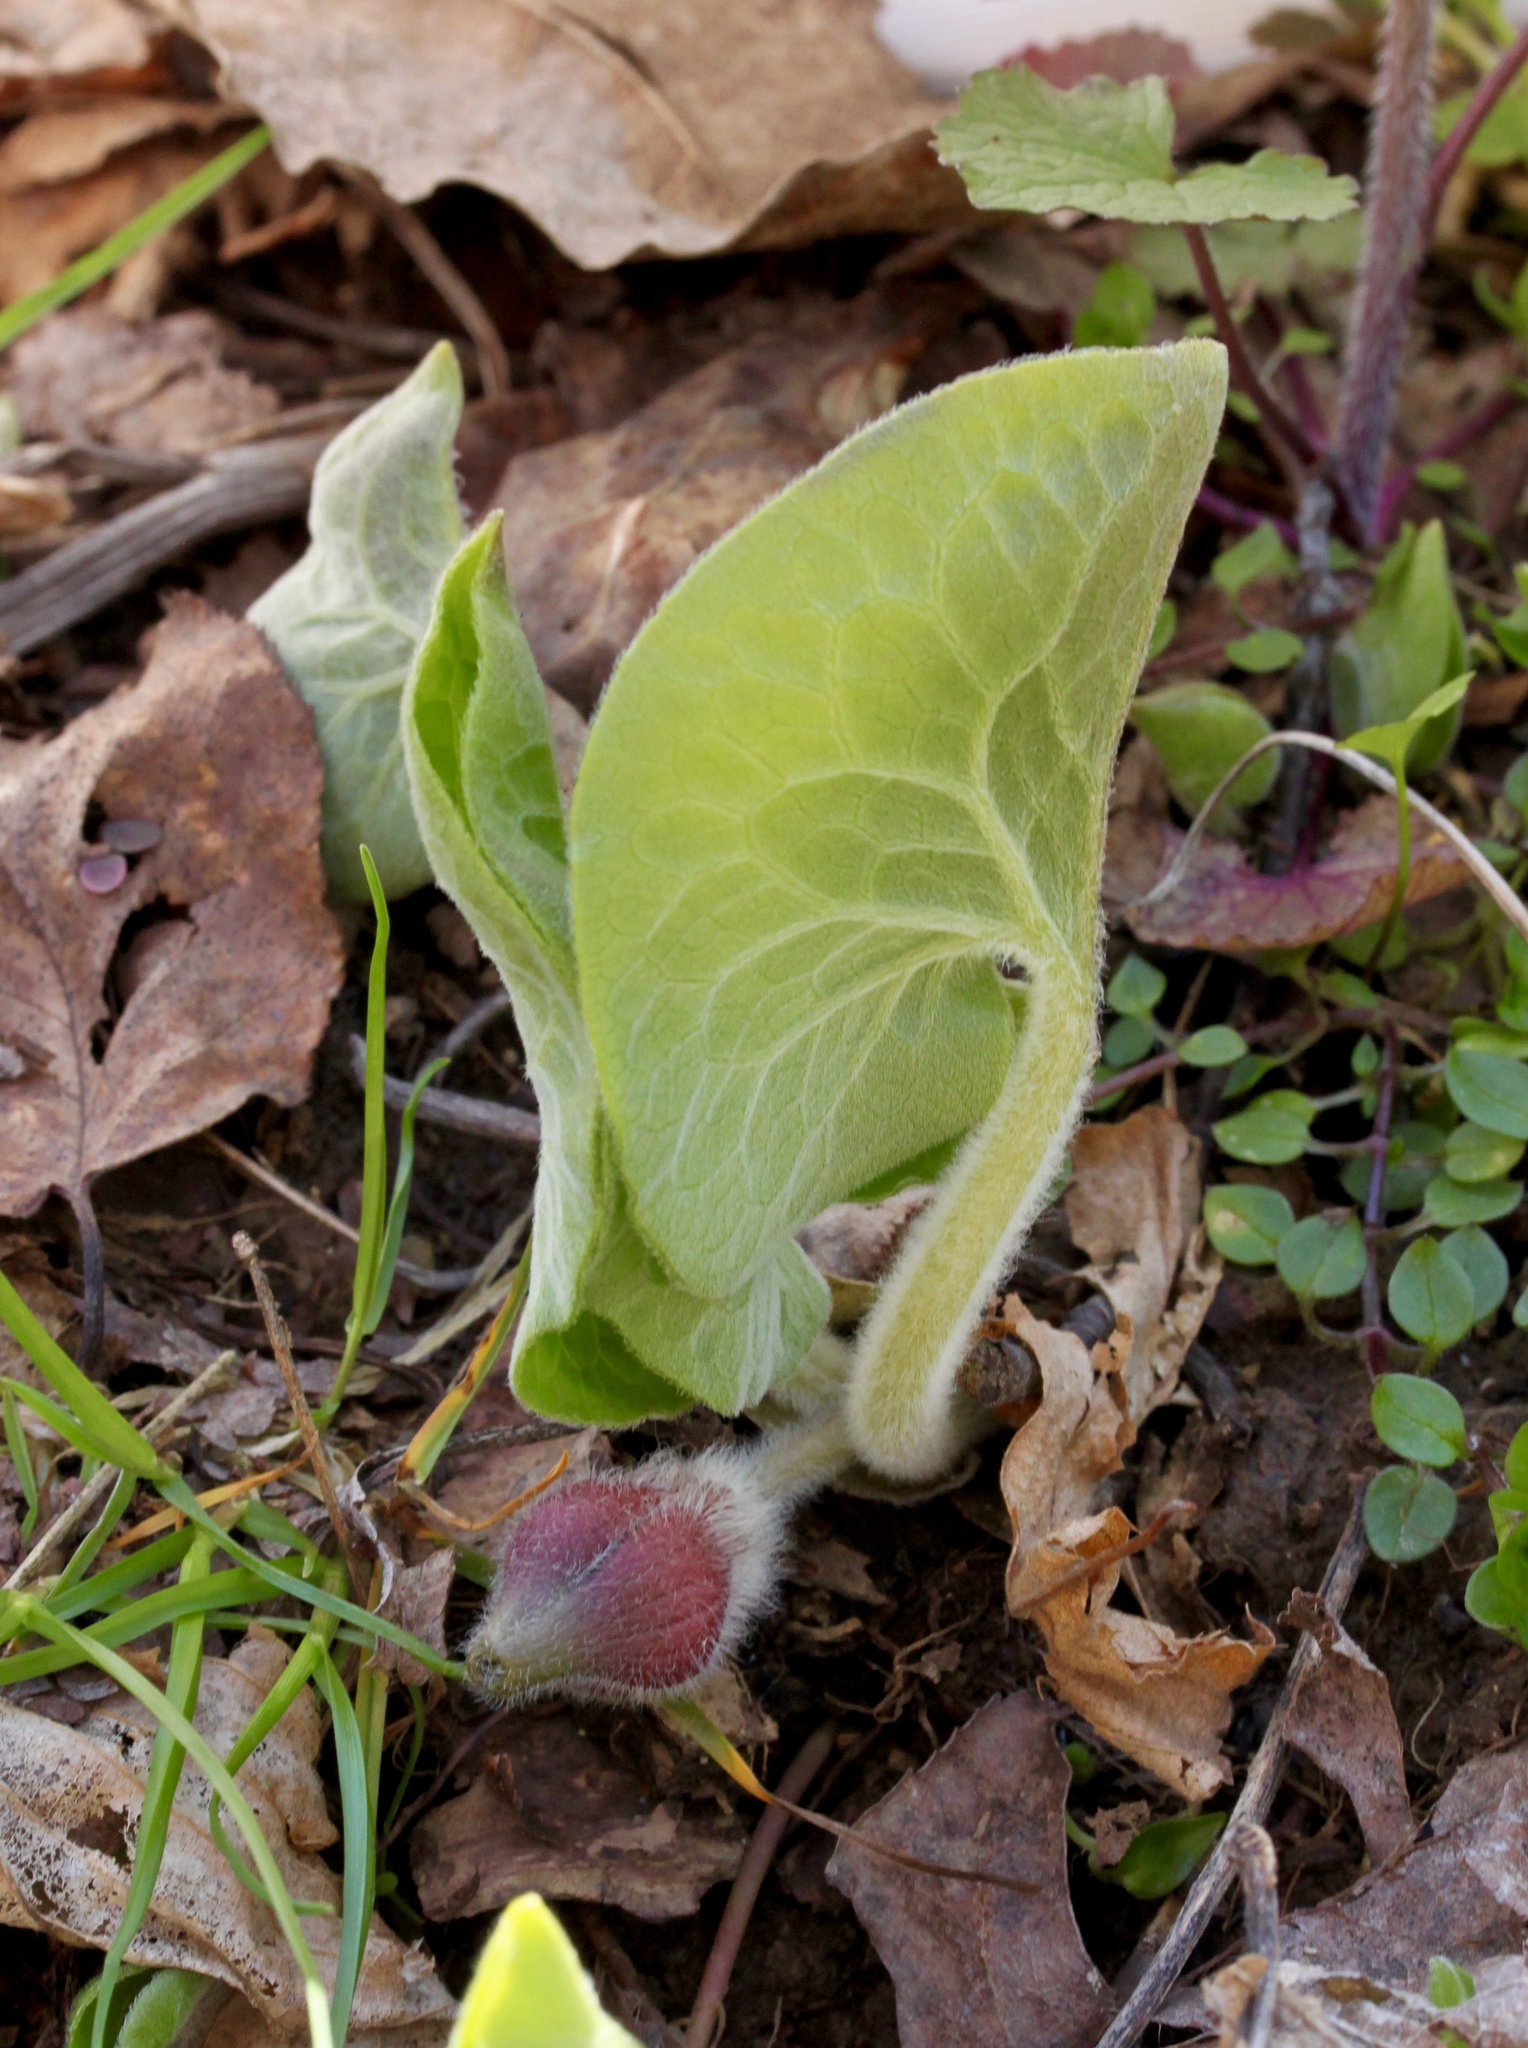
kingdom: Plantae
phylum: Tracheophyta
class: Magnoliopsida
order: Piperales
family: Aristolochiaceae
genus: Asarum
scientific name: Asarum canadense
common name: Wild ginger
